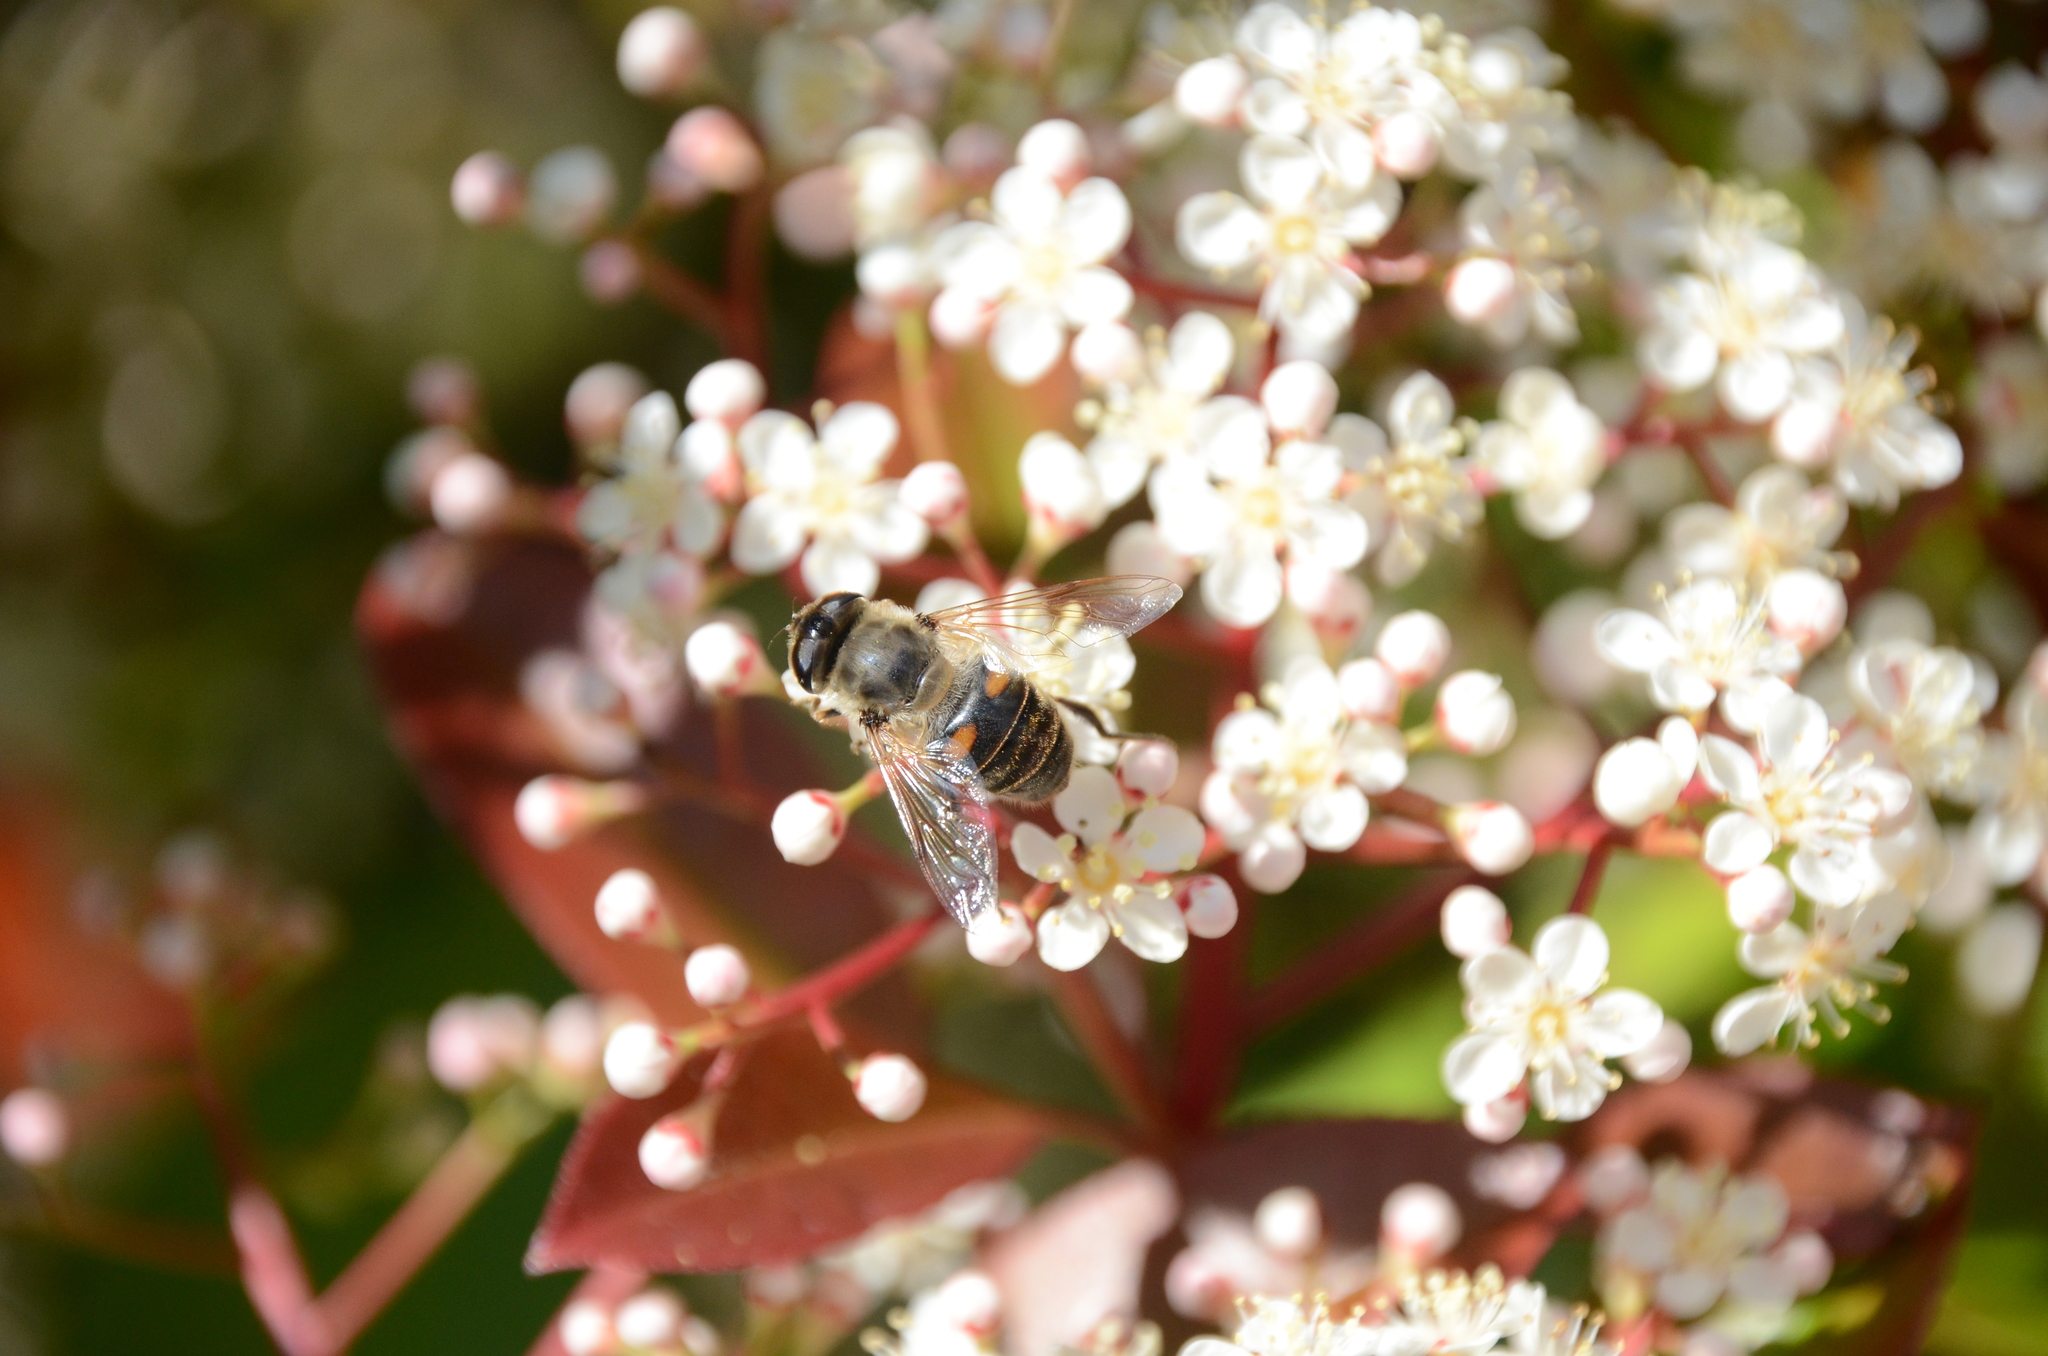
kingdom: Animalia
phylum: Arthropoda
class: Insecta
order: Diptera
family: Syrphidae
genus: Eristalis
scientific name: Eristalis tenax
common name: Drone fly
